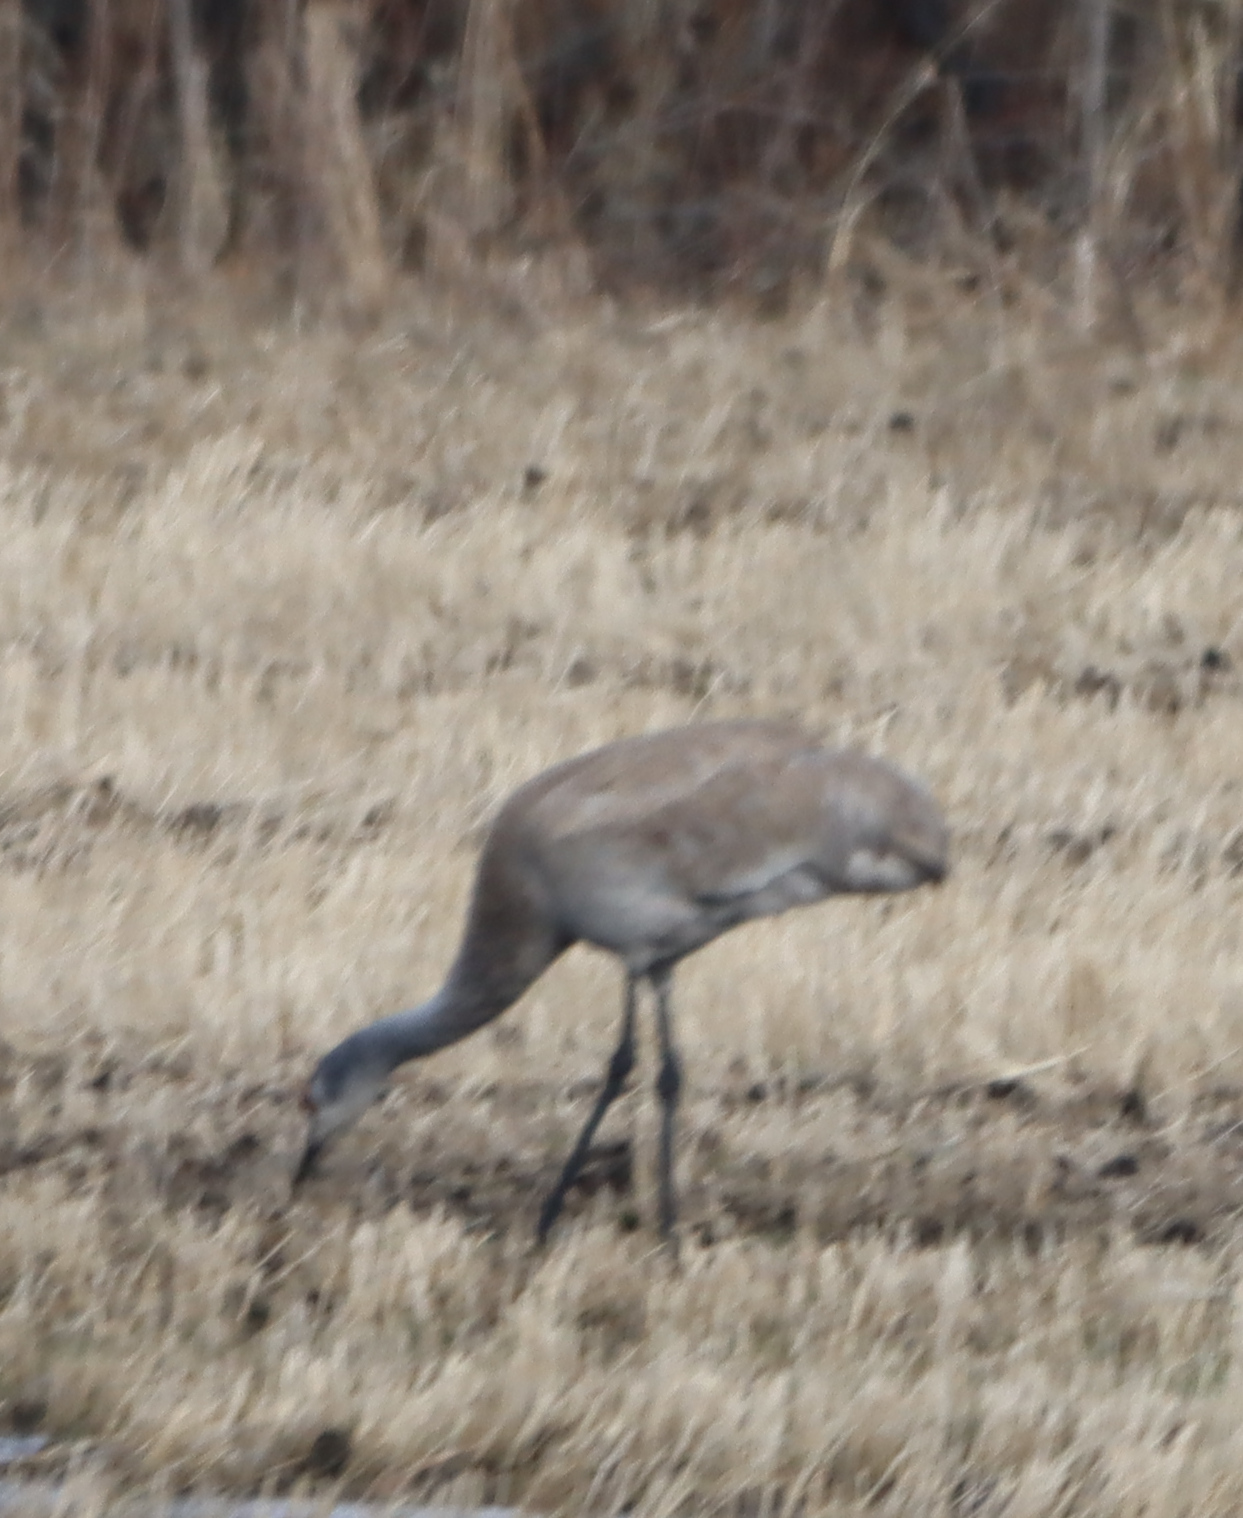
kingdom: Animalia
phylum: Chordata
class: Aves
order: Gruiformes
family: Gruidae
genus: Grus
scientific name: Grus canadensis
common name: Sandhill crane
